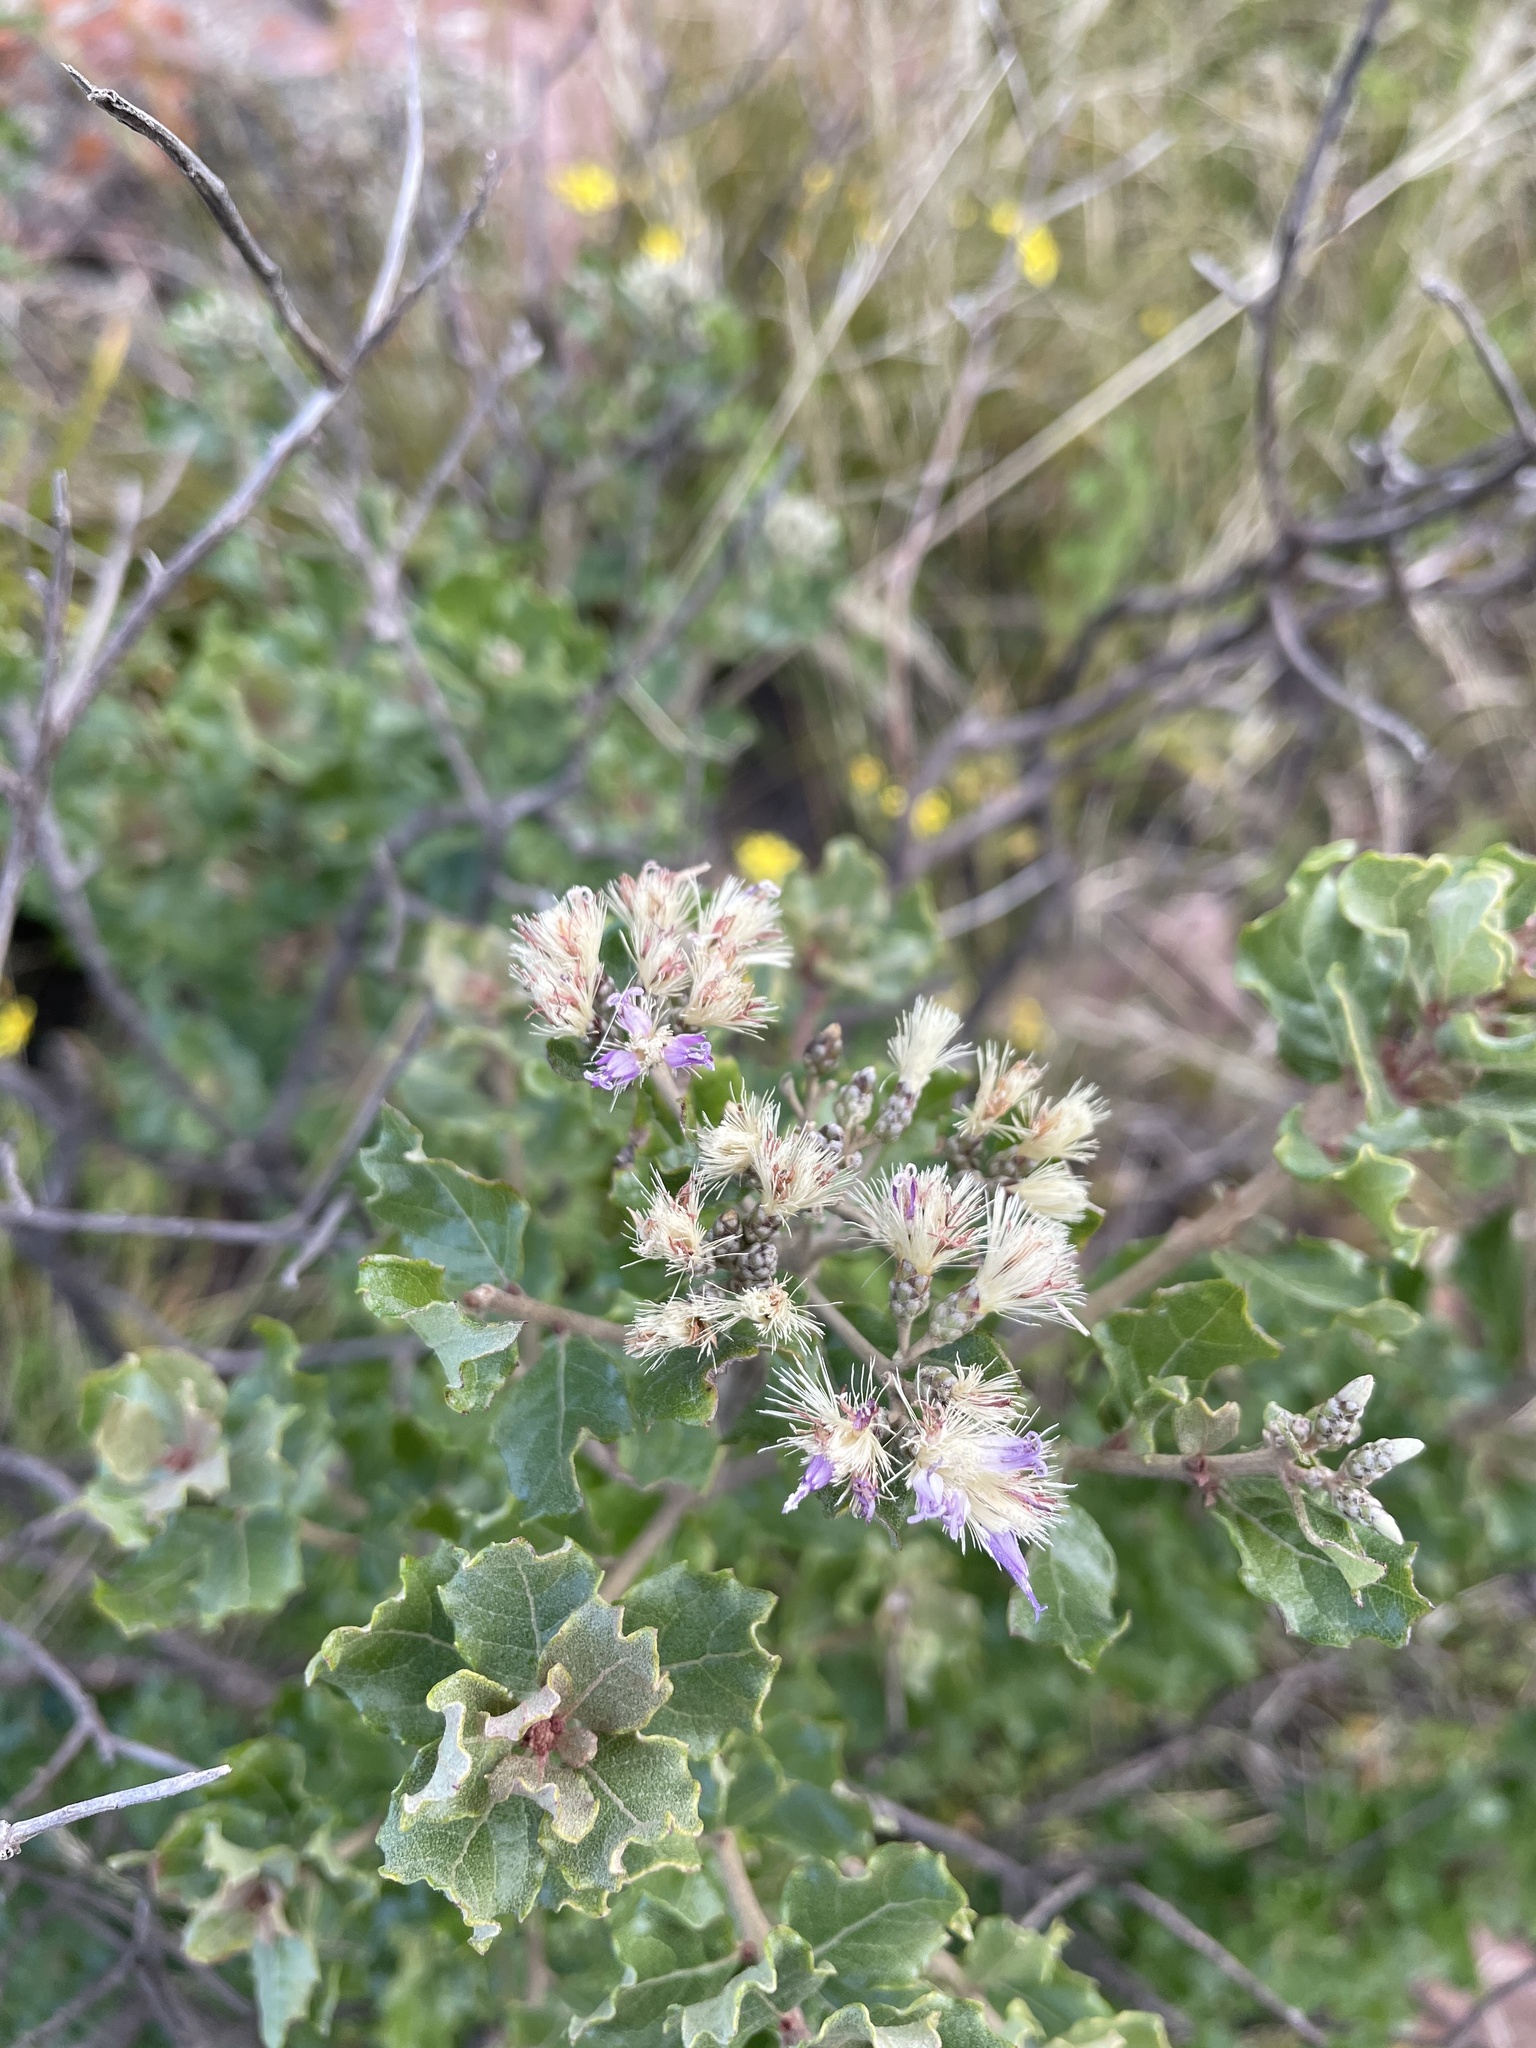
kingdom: Plantae
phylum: Tracheophyta
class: Magnoliopsida
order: Asterales
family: Asteraceae
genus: Gymnanthemum
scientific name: Gymnanthemum koekemoerae
